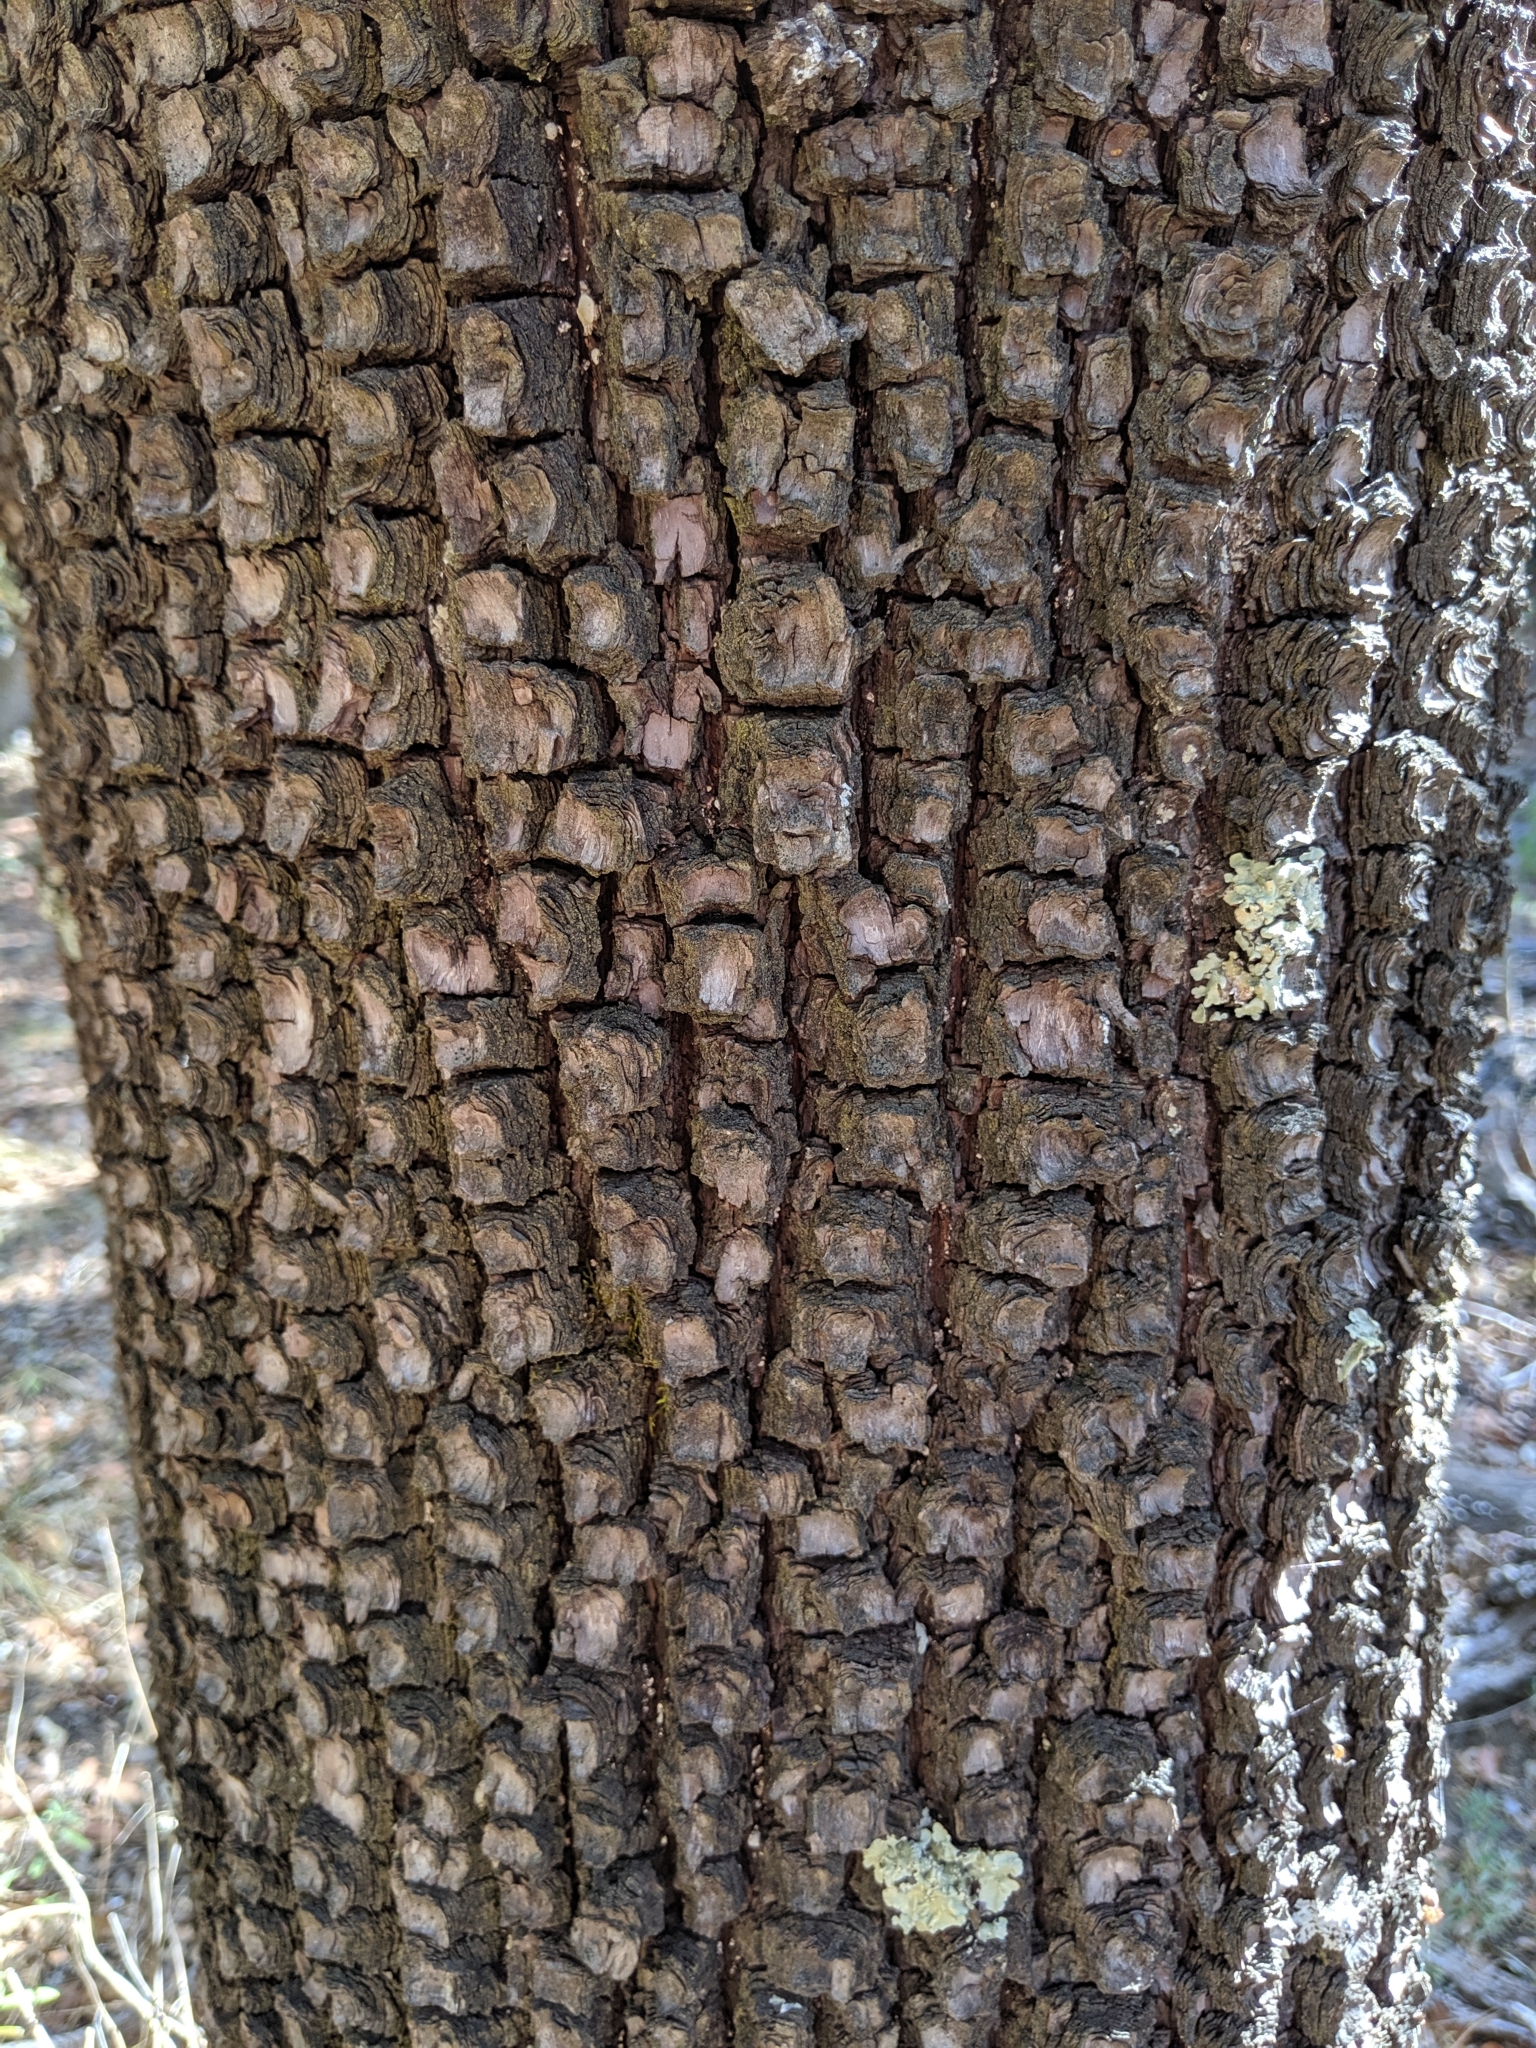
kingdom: Plantae
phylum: Tracheophyta
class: Pinopsida
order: Pinales
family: Cupressaceae
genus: Juniperus
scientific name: Juniperus deppeana
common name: Alligator juniper
